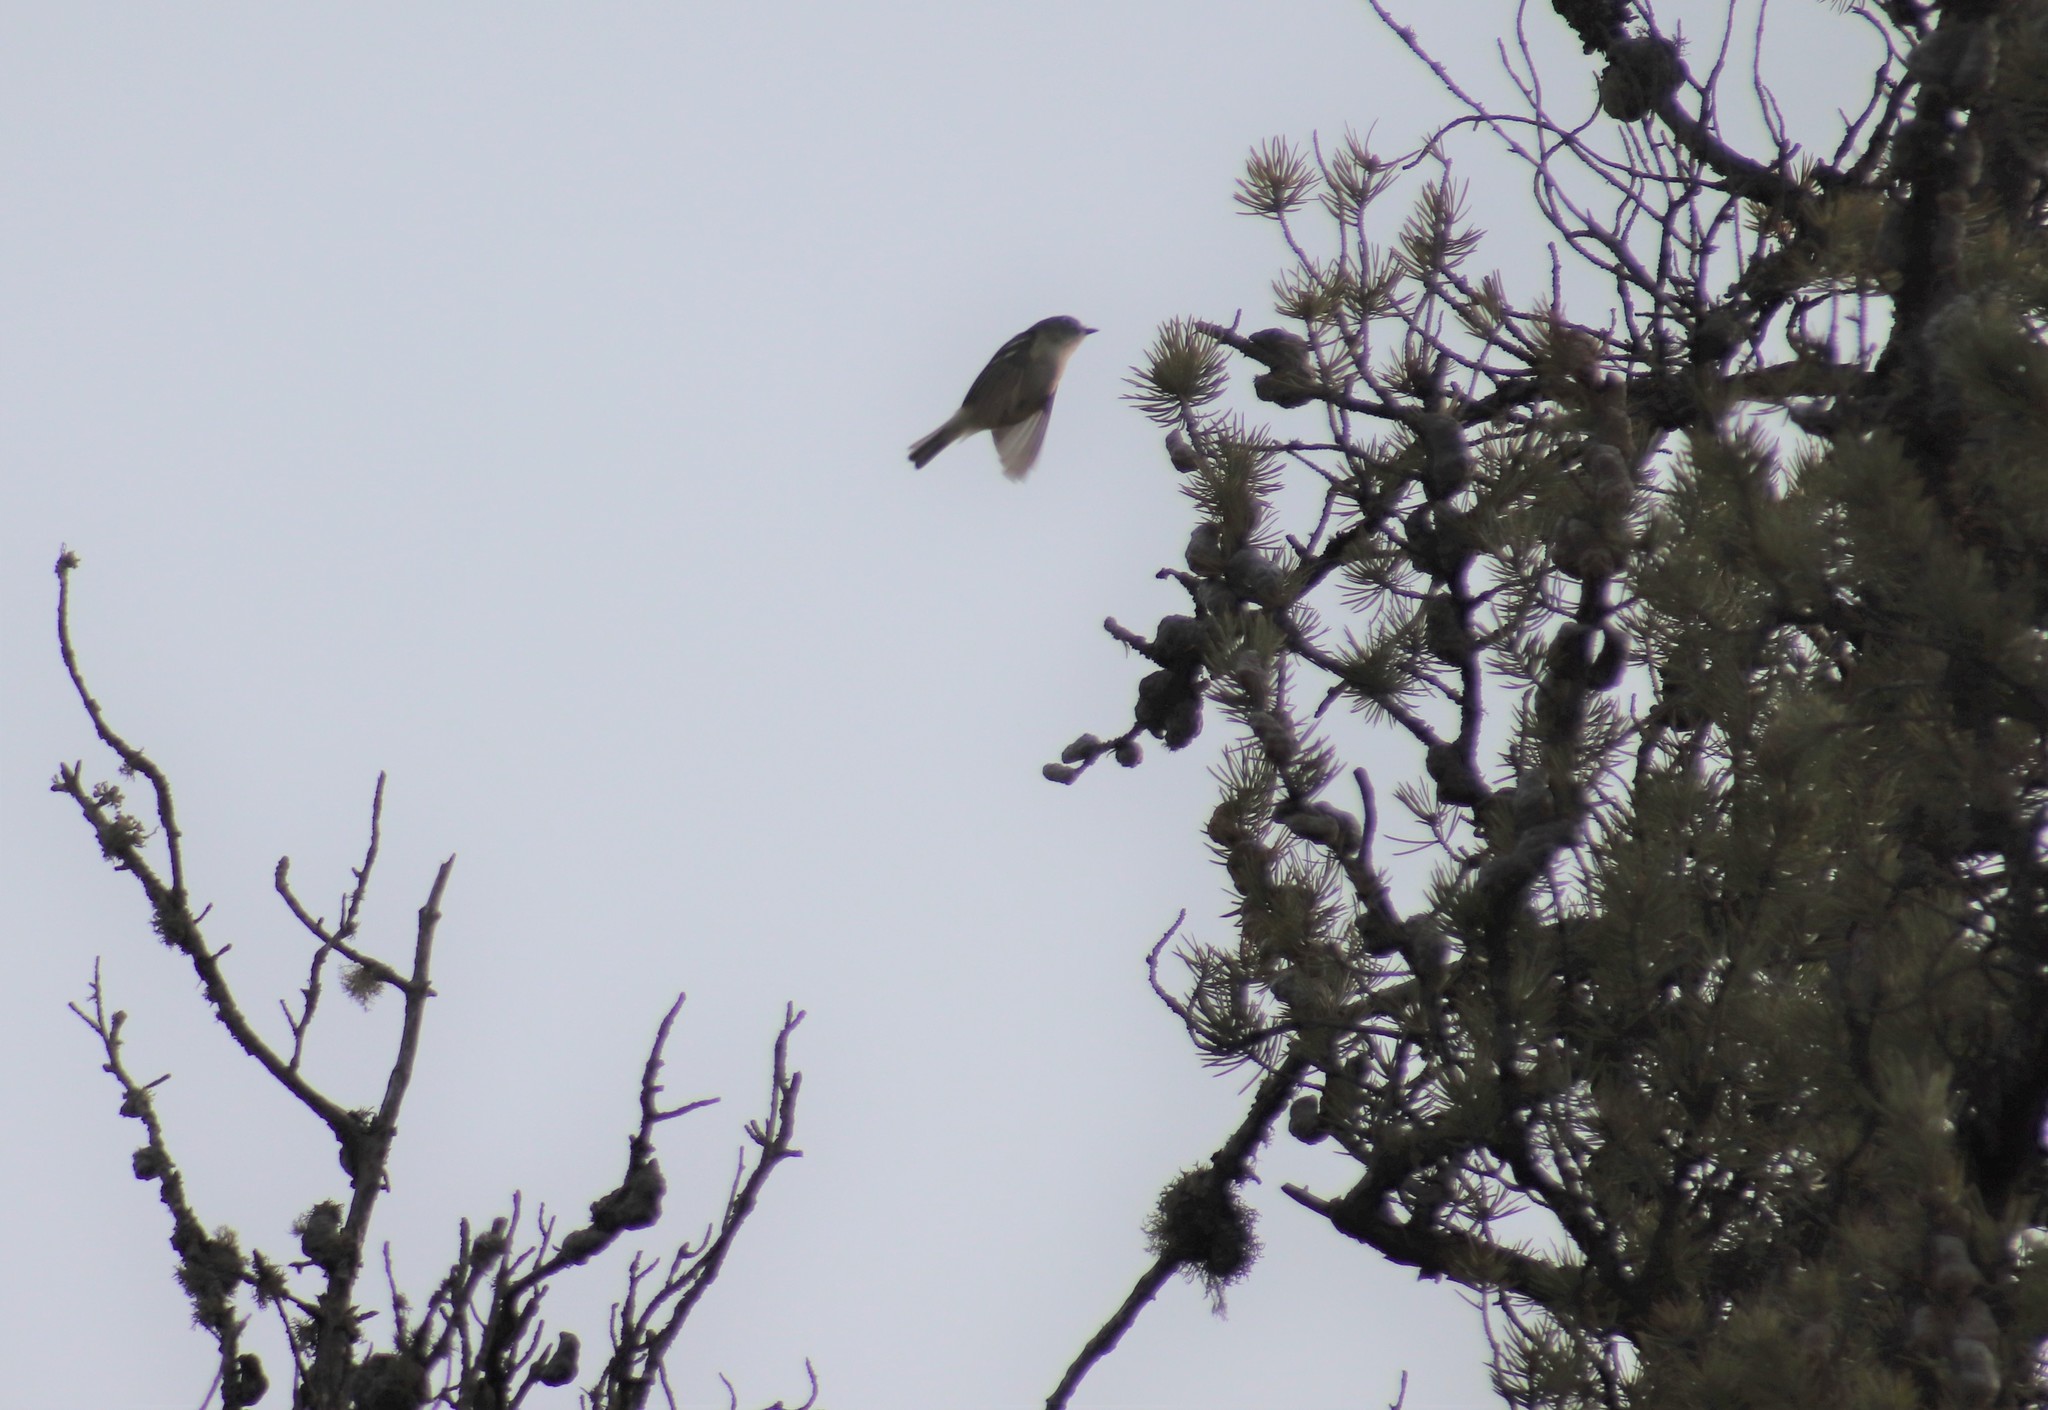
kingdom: Animalia
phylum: Chordata
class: Aves
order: Passeriformes
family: Vireonidae
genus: Vireo
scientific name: Vireo solitarius
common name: Blue-headed vireo
